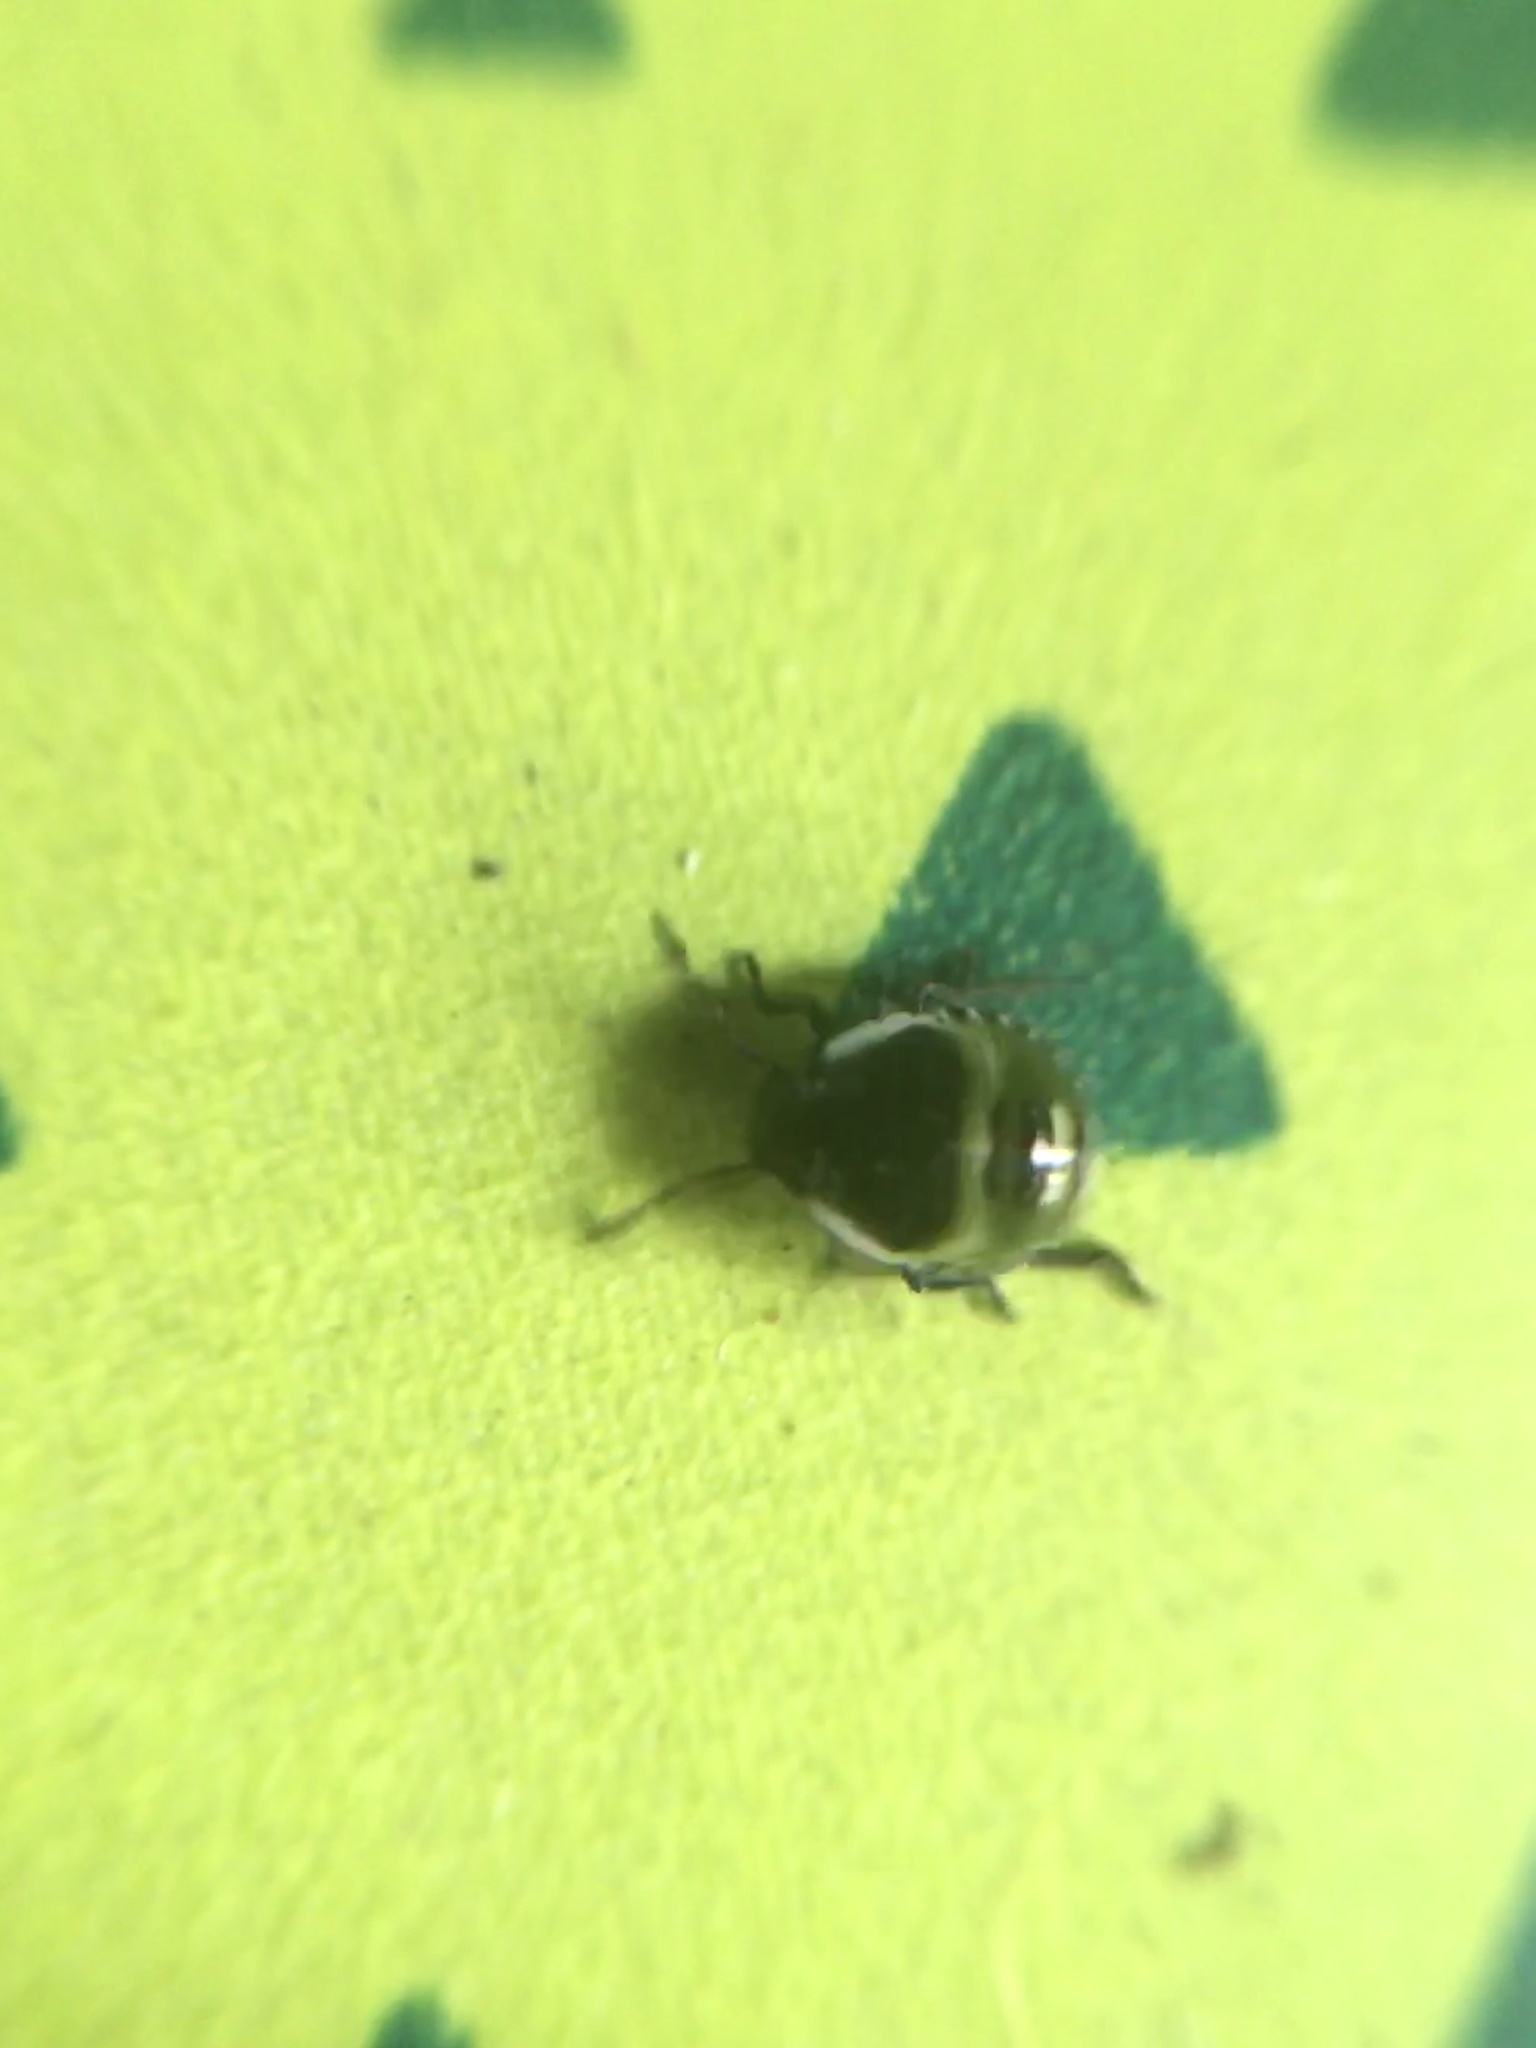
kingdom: Animalia
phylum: Arthropoda
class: Insecta
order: Hemiptera
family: Pentatomidae
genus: Palomena
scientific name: Palomena prasina
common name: Green shieldbug
